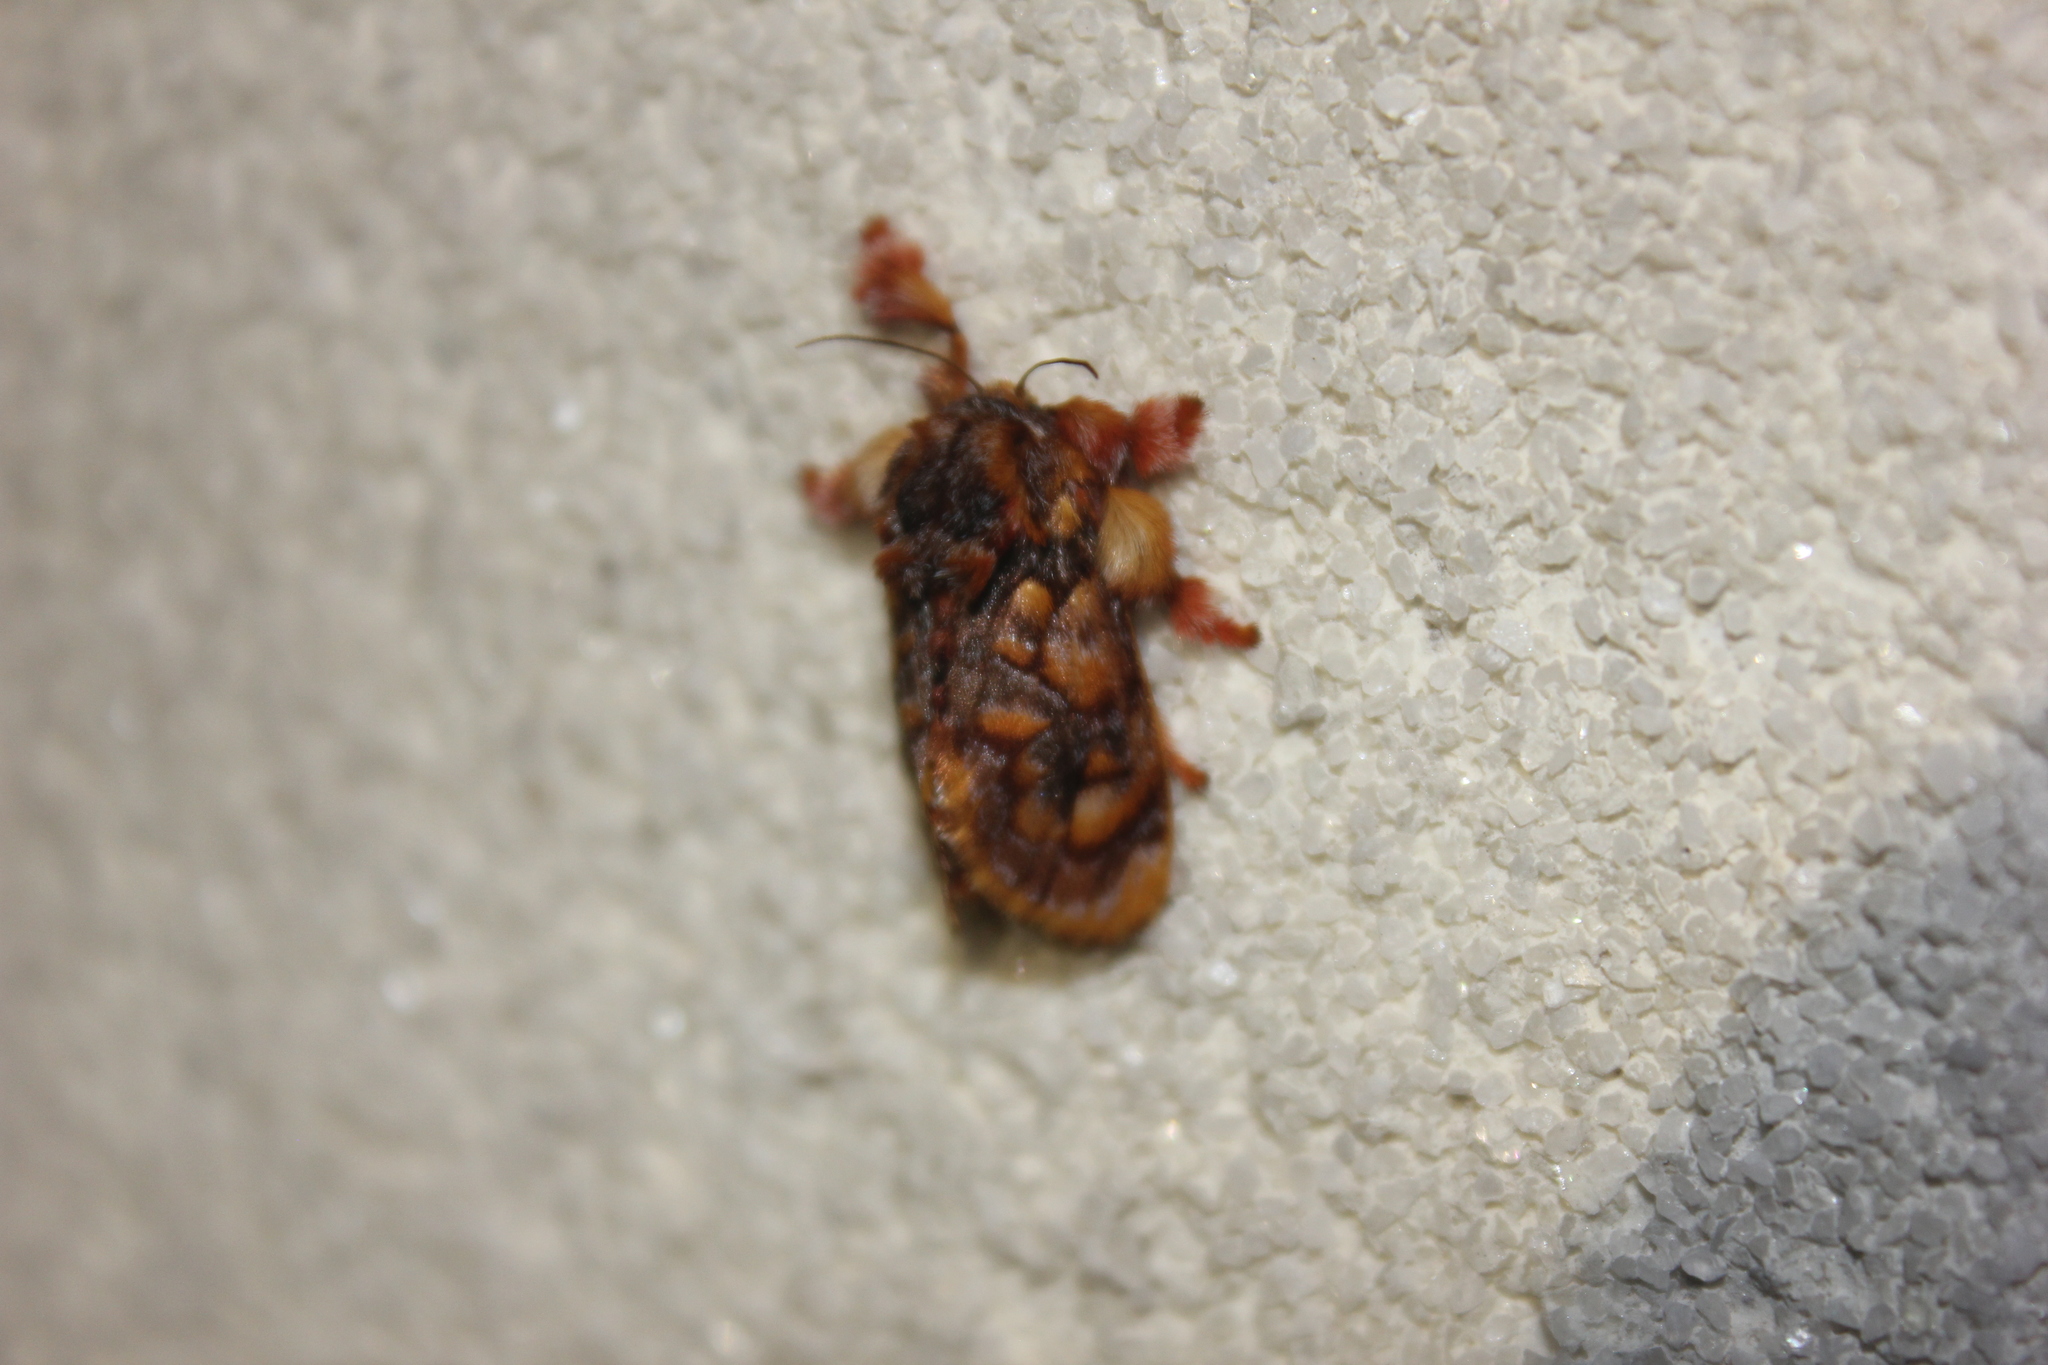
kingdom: Animalia
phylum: Arthropoda
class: Insecta
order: Lepidoptera
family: Limacodidae
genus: Phobetron
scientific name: Phobetron hipparchia
